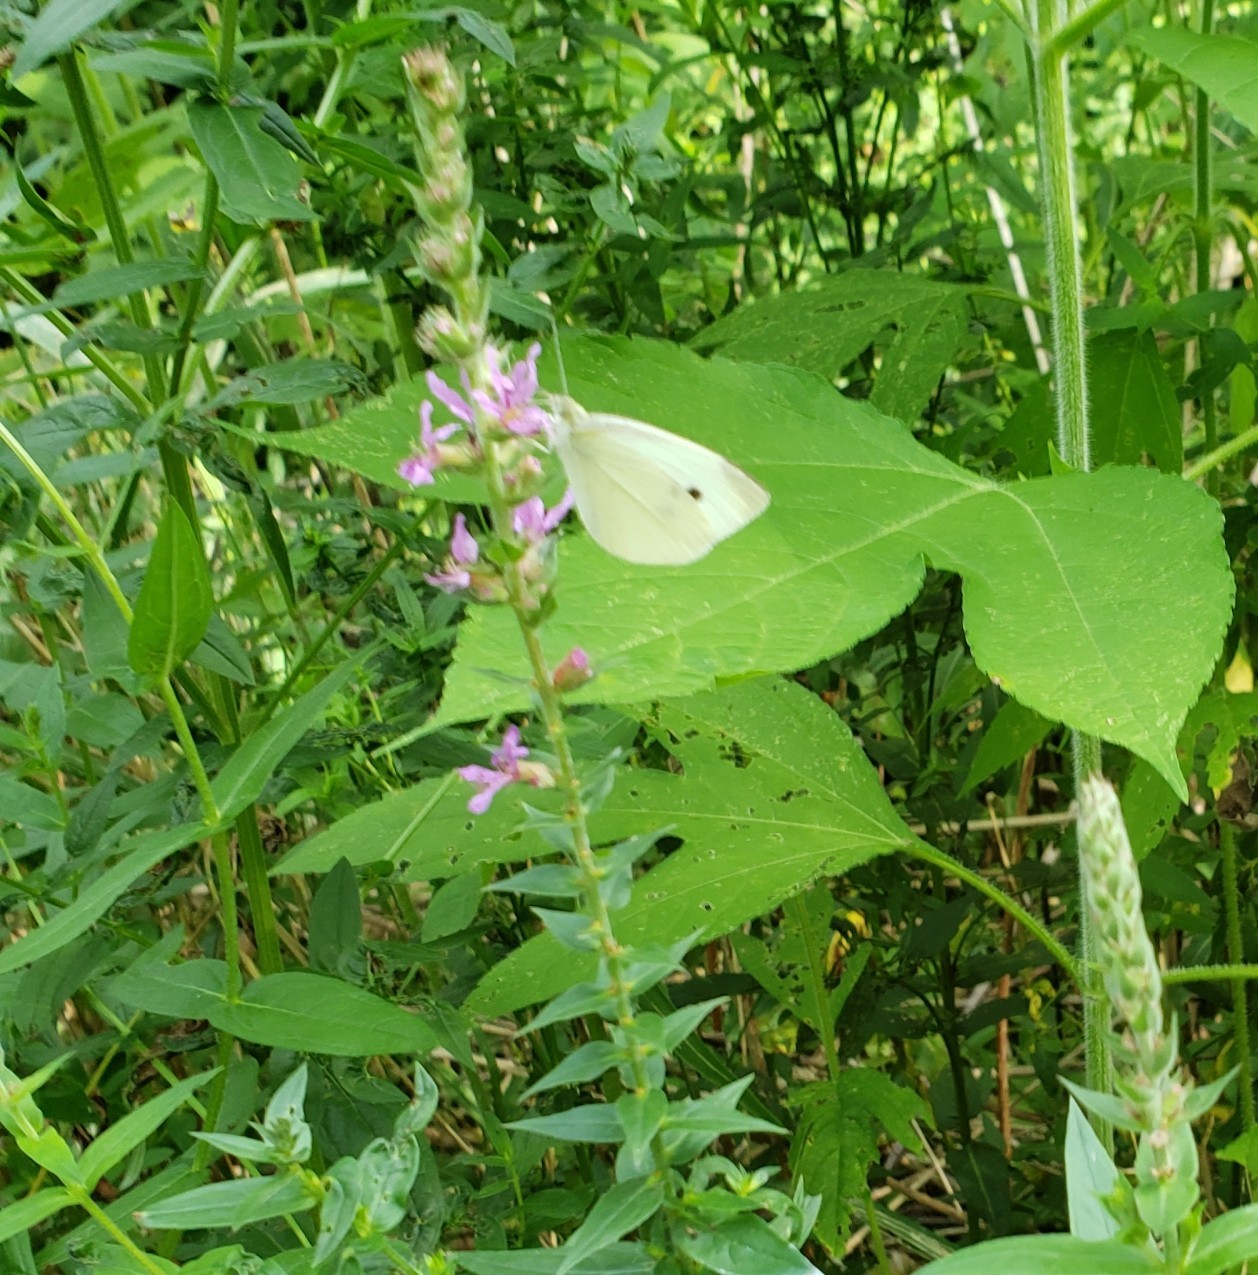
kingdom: Animalia
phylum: Arthropoda
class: Insecta
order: Lepidoptera
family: Pieridae
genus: Pieris
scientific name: Pieris rapae
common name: Small white
